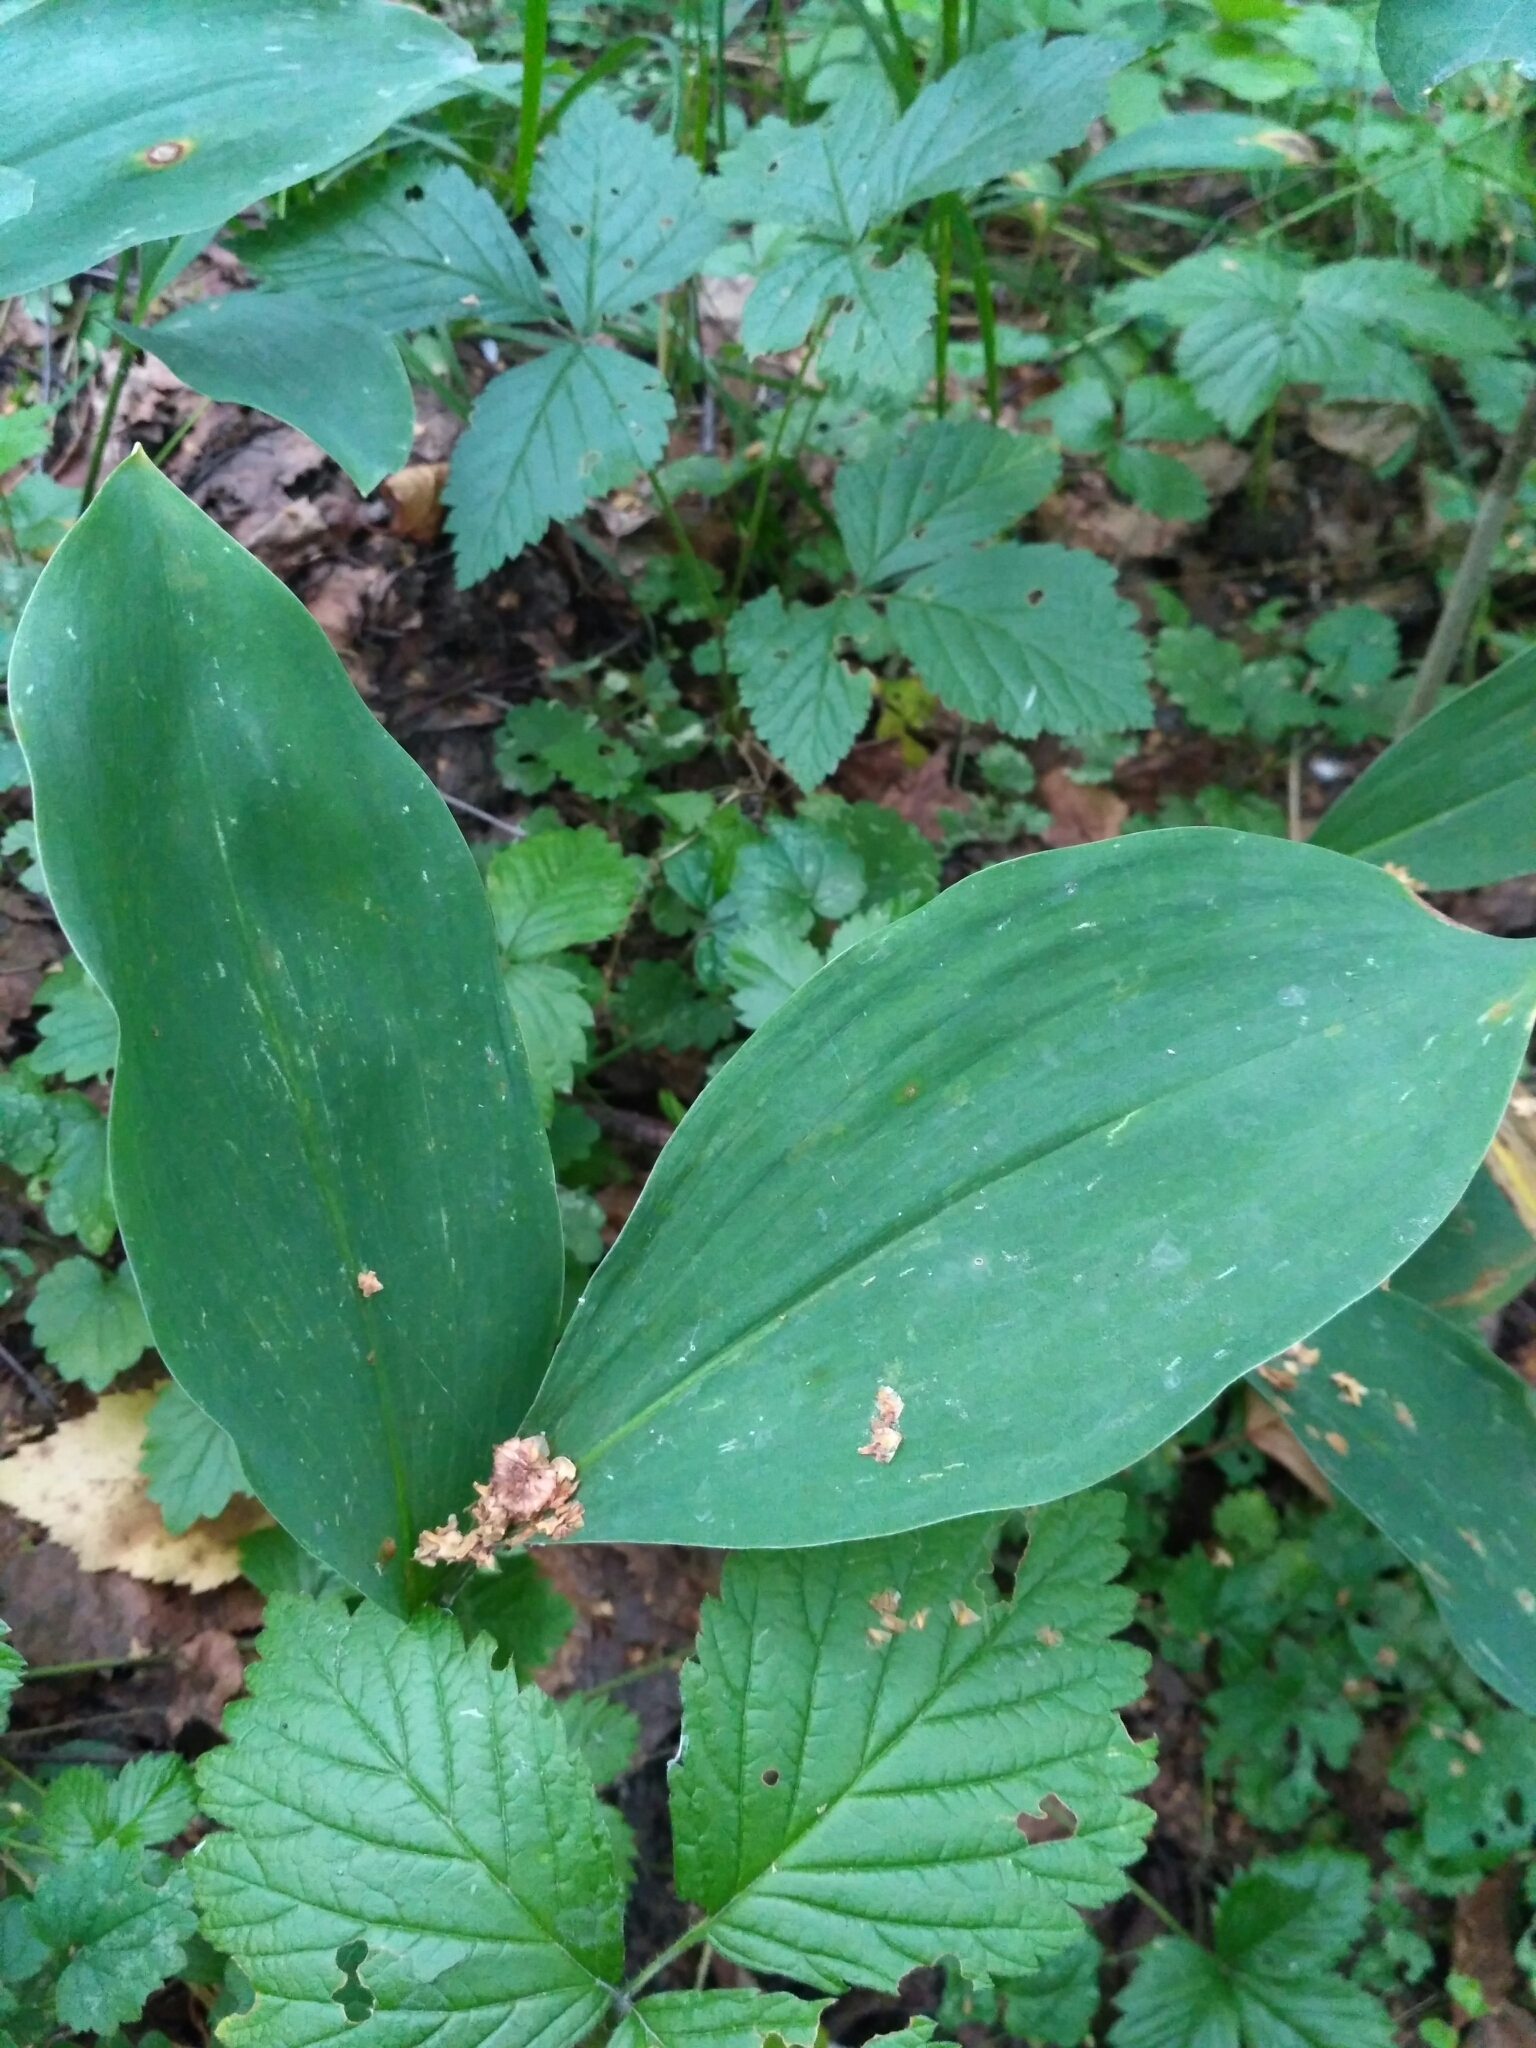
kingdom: Plantae
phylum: Tracheophyta
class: Liliopsida
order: Asparagales
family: Asparagaceae
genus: Convallaria
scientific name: Convallaria majalis
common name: Lily-of-the-valley
